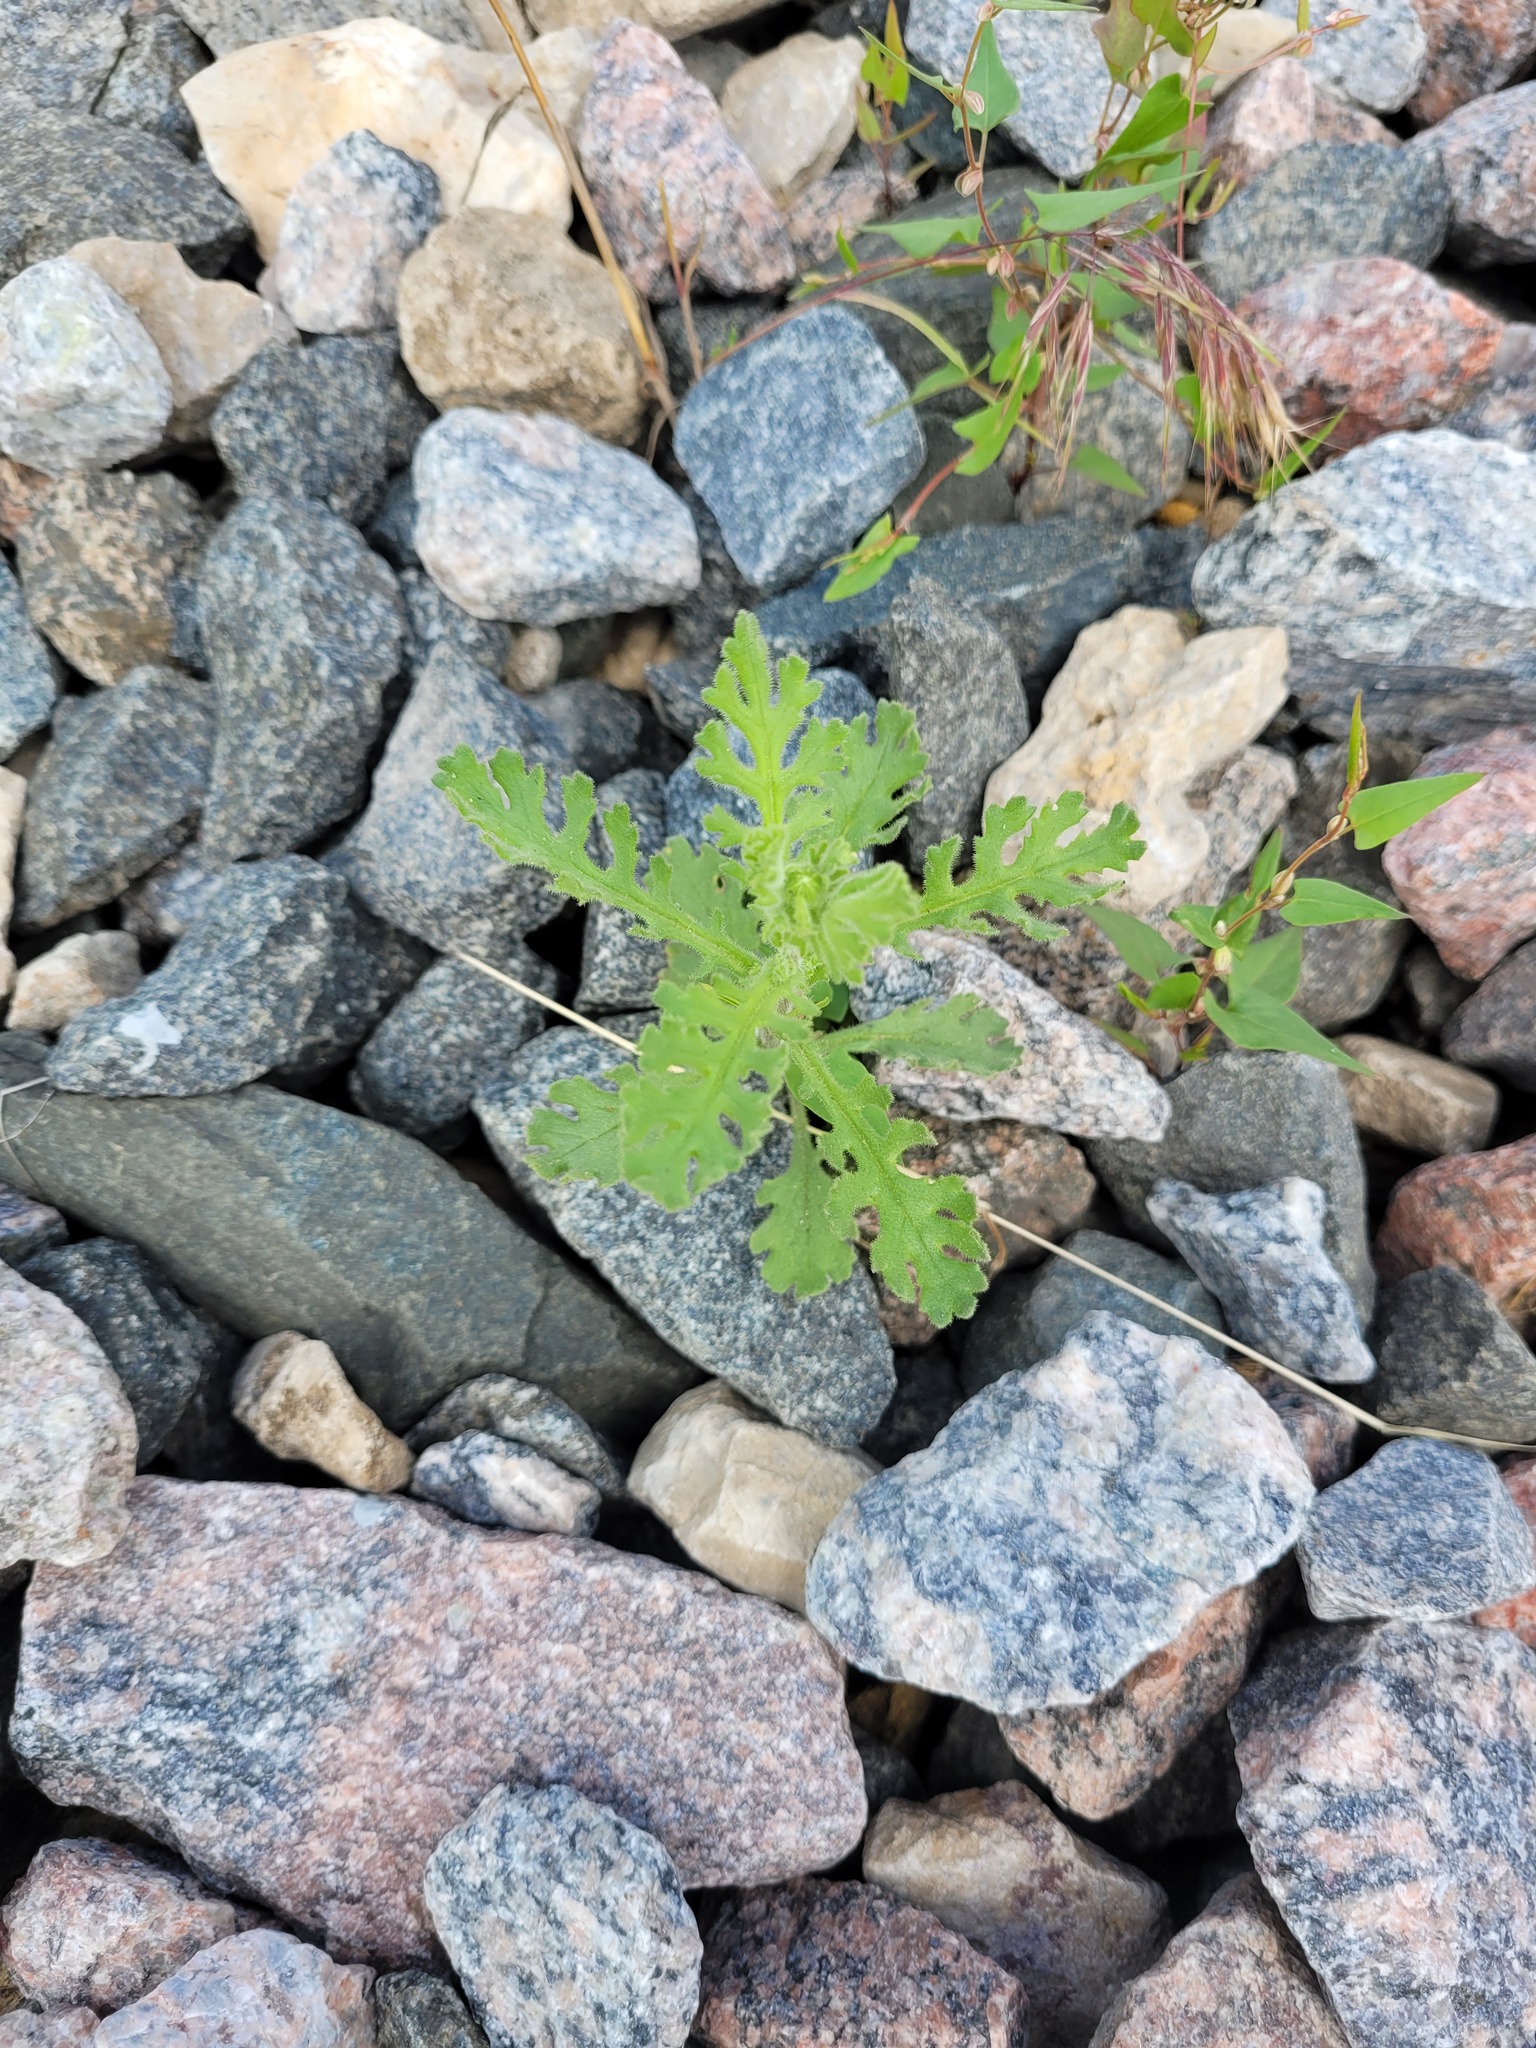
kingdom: Plantae
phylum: Tracheophyta
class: Magnoliopsida
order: Asterales
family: Asteraceae
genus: Senecio
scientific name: Senecio viscosus
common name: Sticky groundsel
